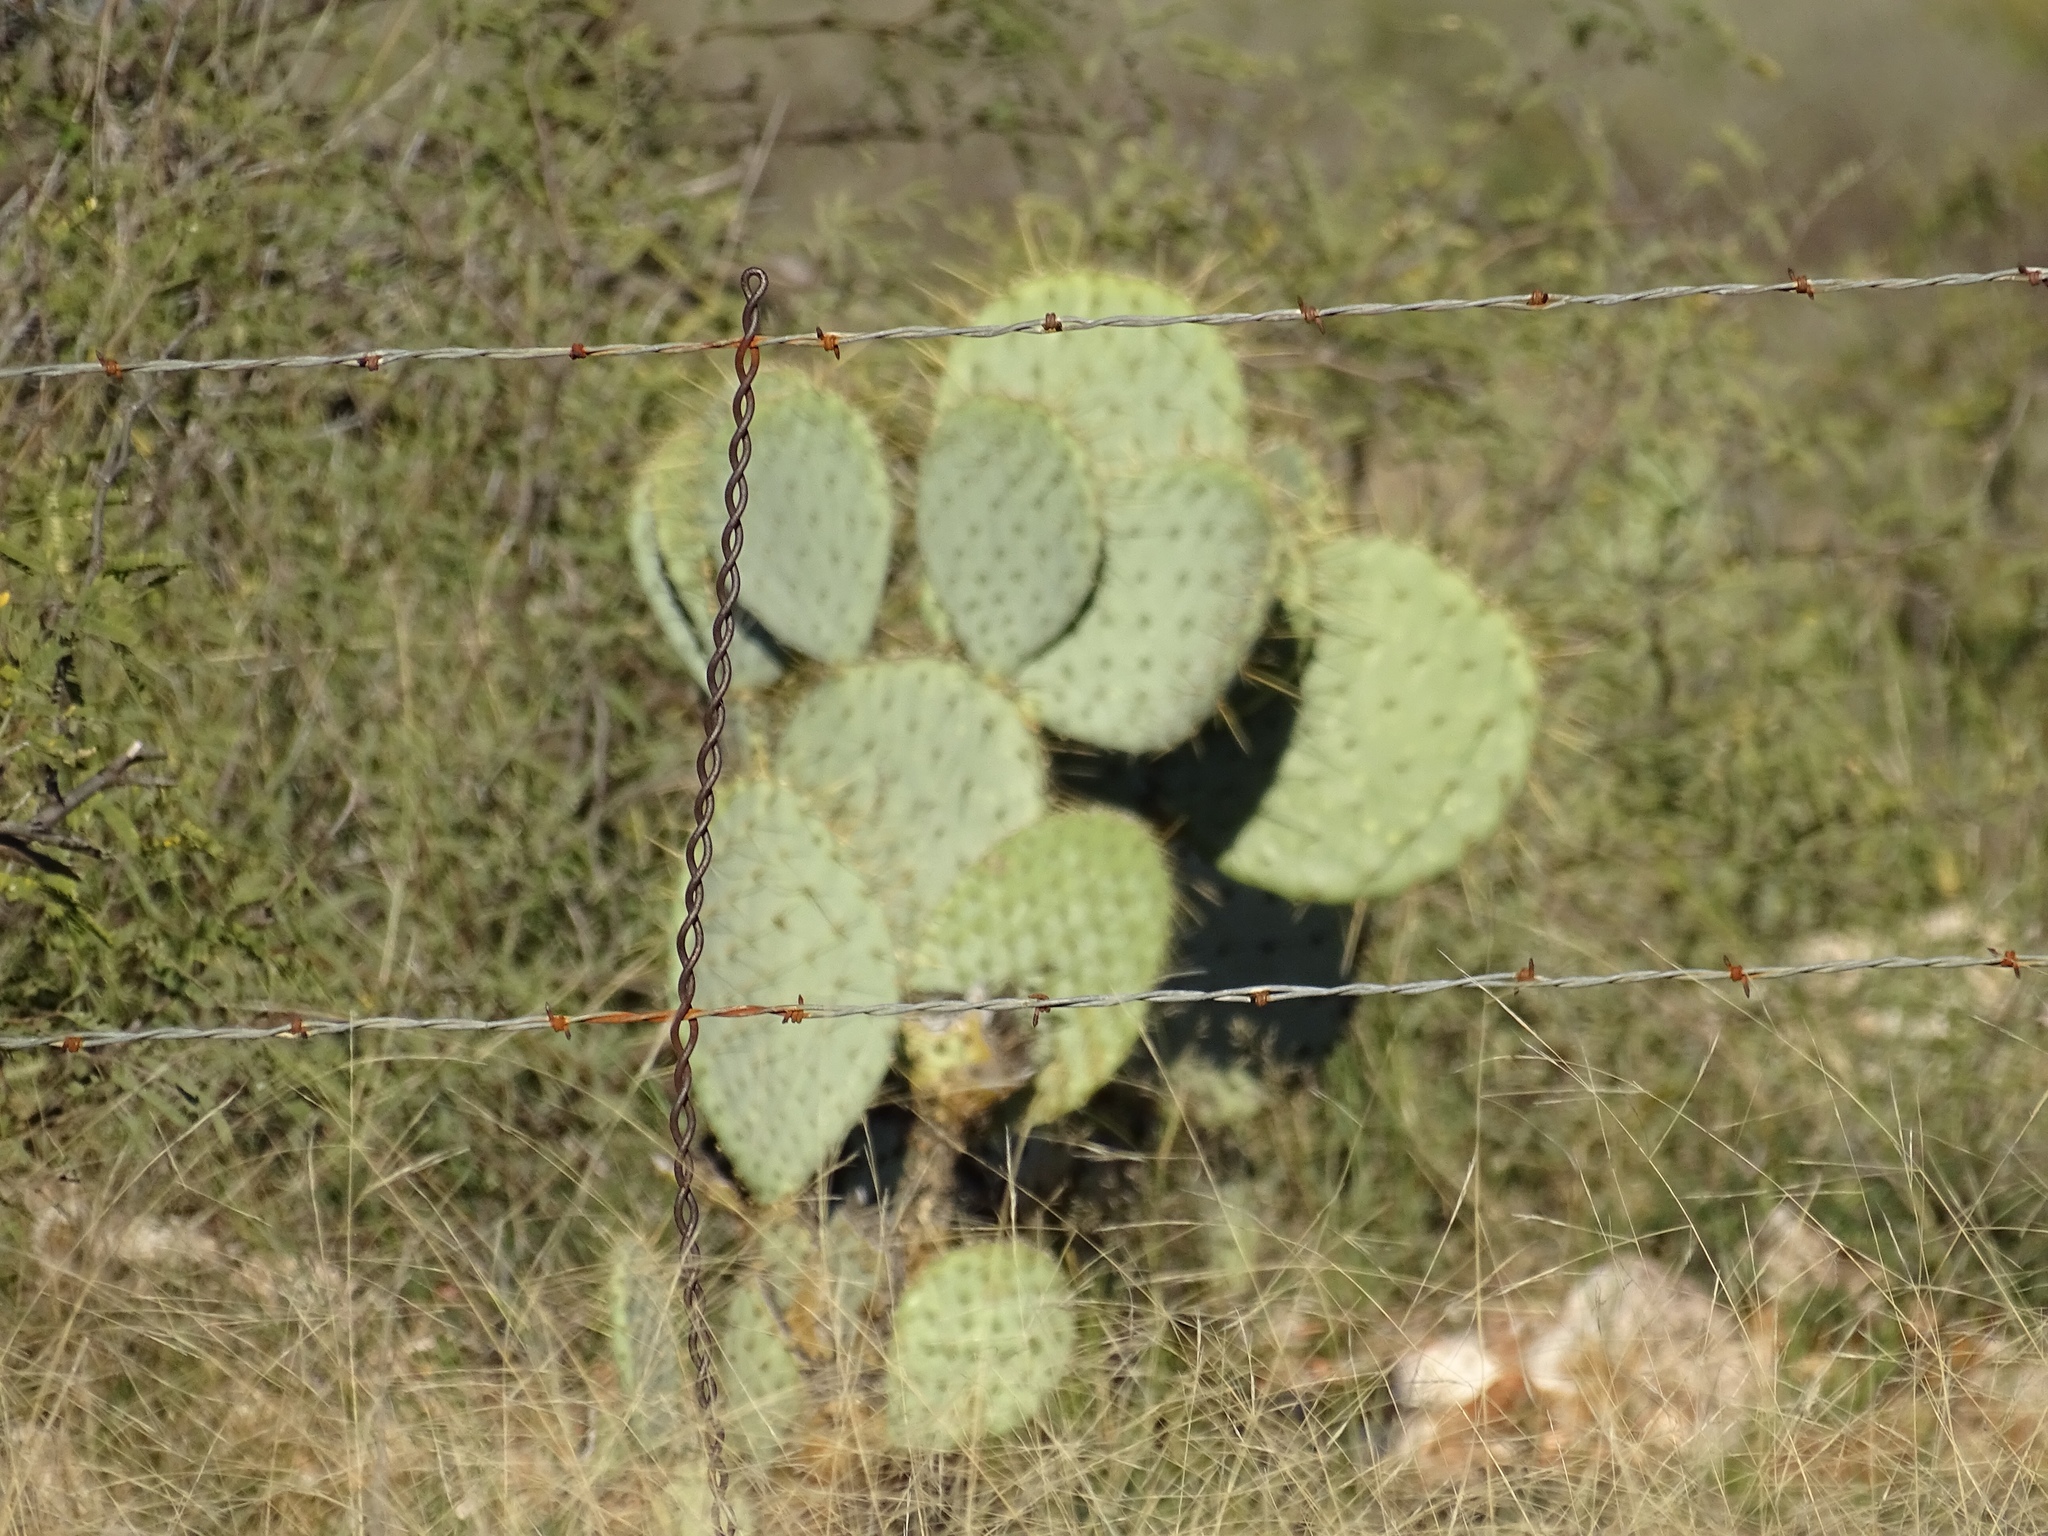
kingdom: Plantae
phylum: Tracheophyta
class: Magnoliopsida
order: Caryophyllales
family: Cactaceae
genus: Opuntia
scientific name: Opuntia chlorotica
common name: Dollar-joint prickly-pear
